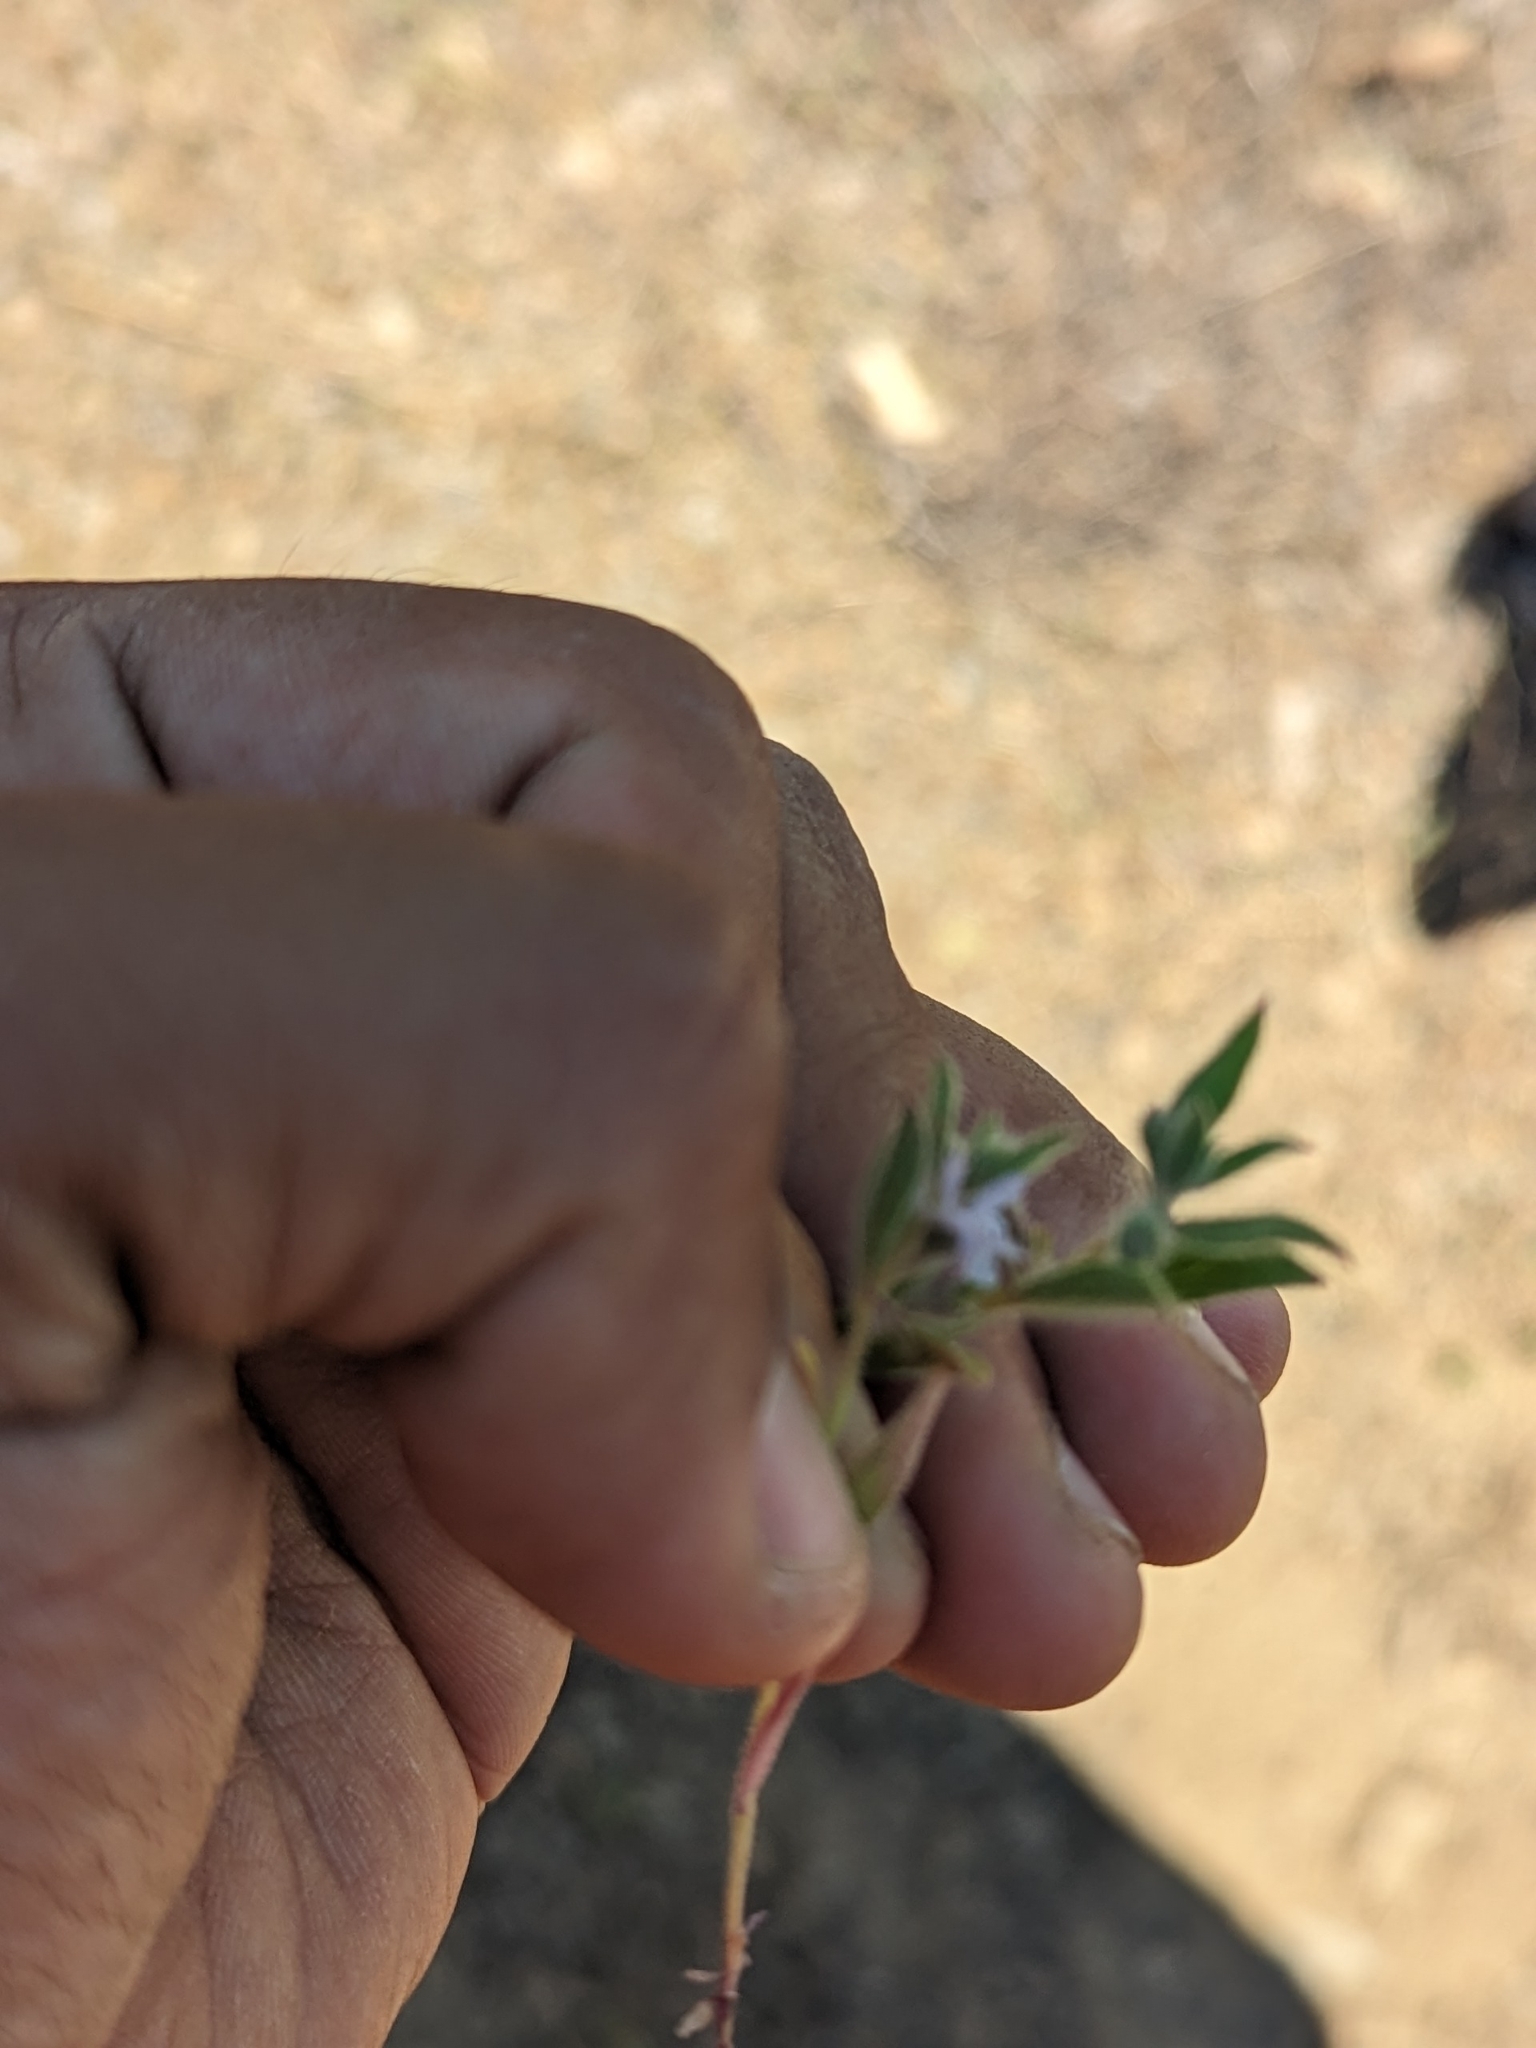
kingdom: Plantae
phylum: Tracheophyta
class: Magnoliopsida
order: Lamiales
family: Lamiaceae
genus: Trichostema
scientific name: Trichostema lanceolatum
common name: Vinegar-weed
